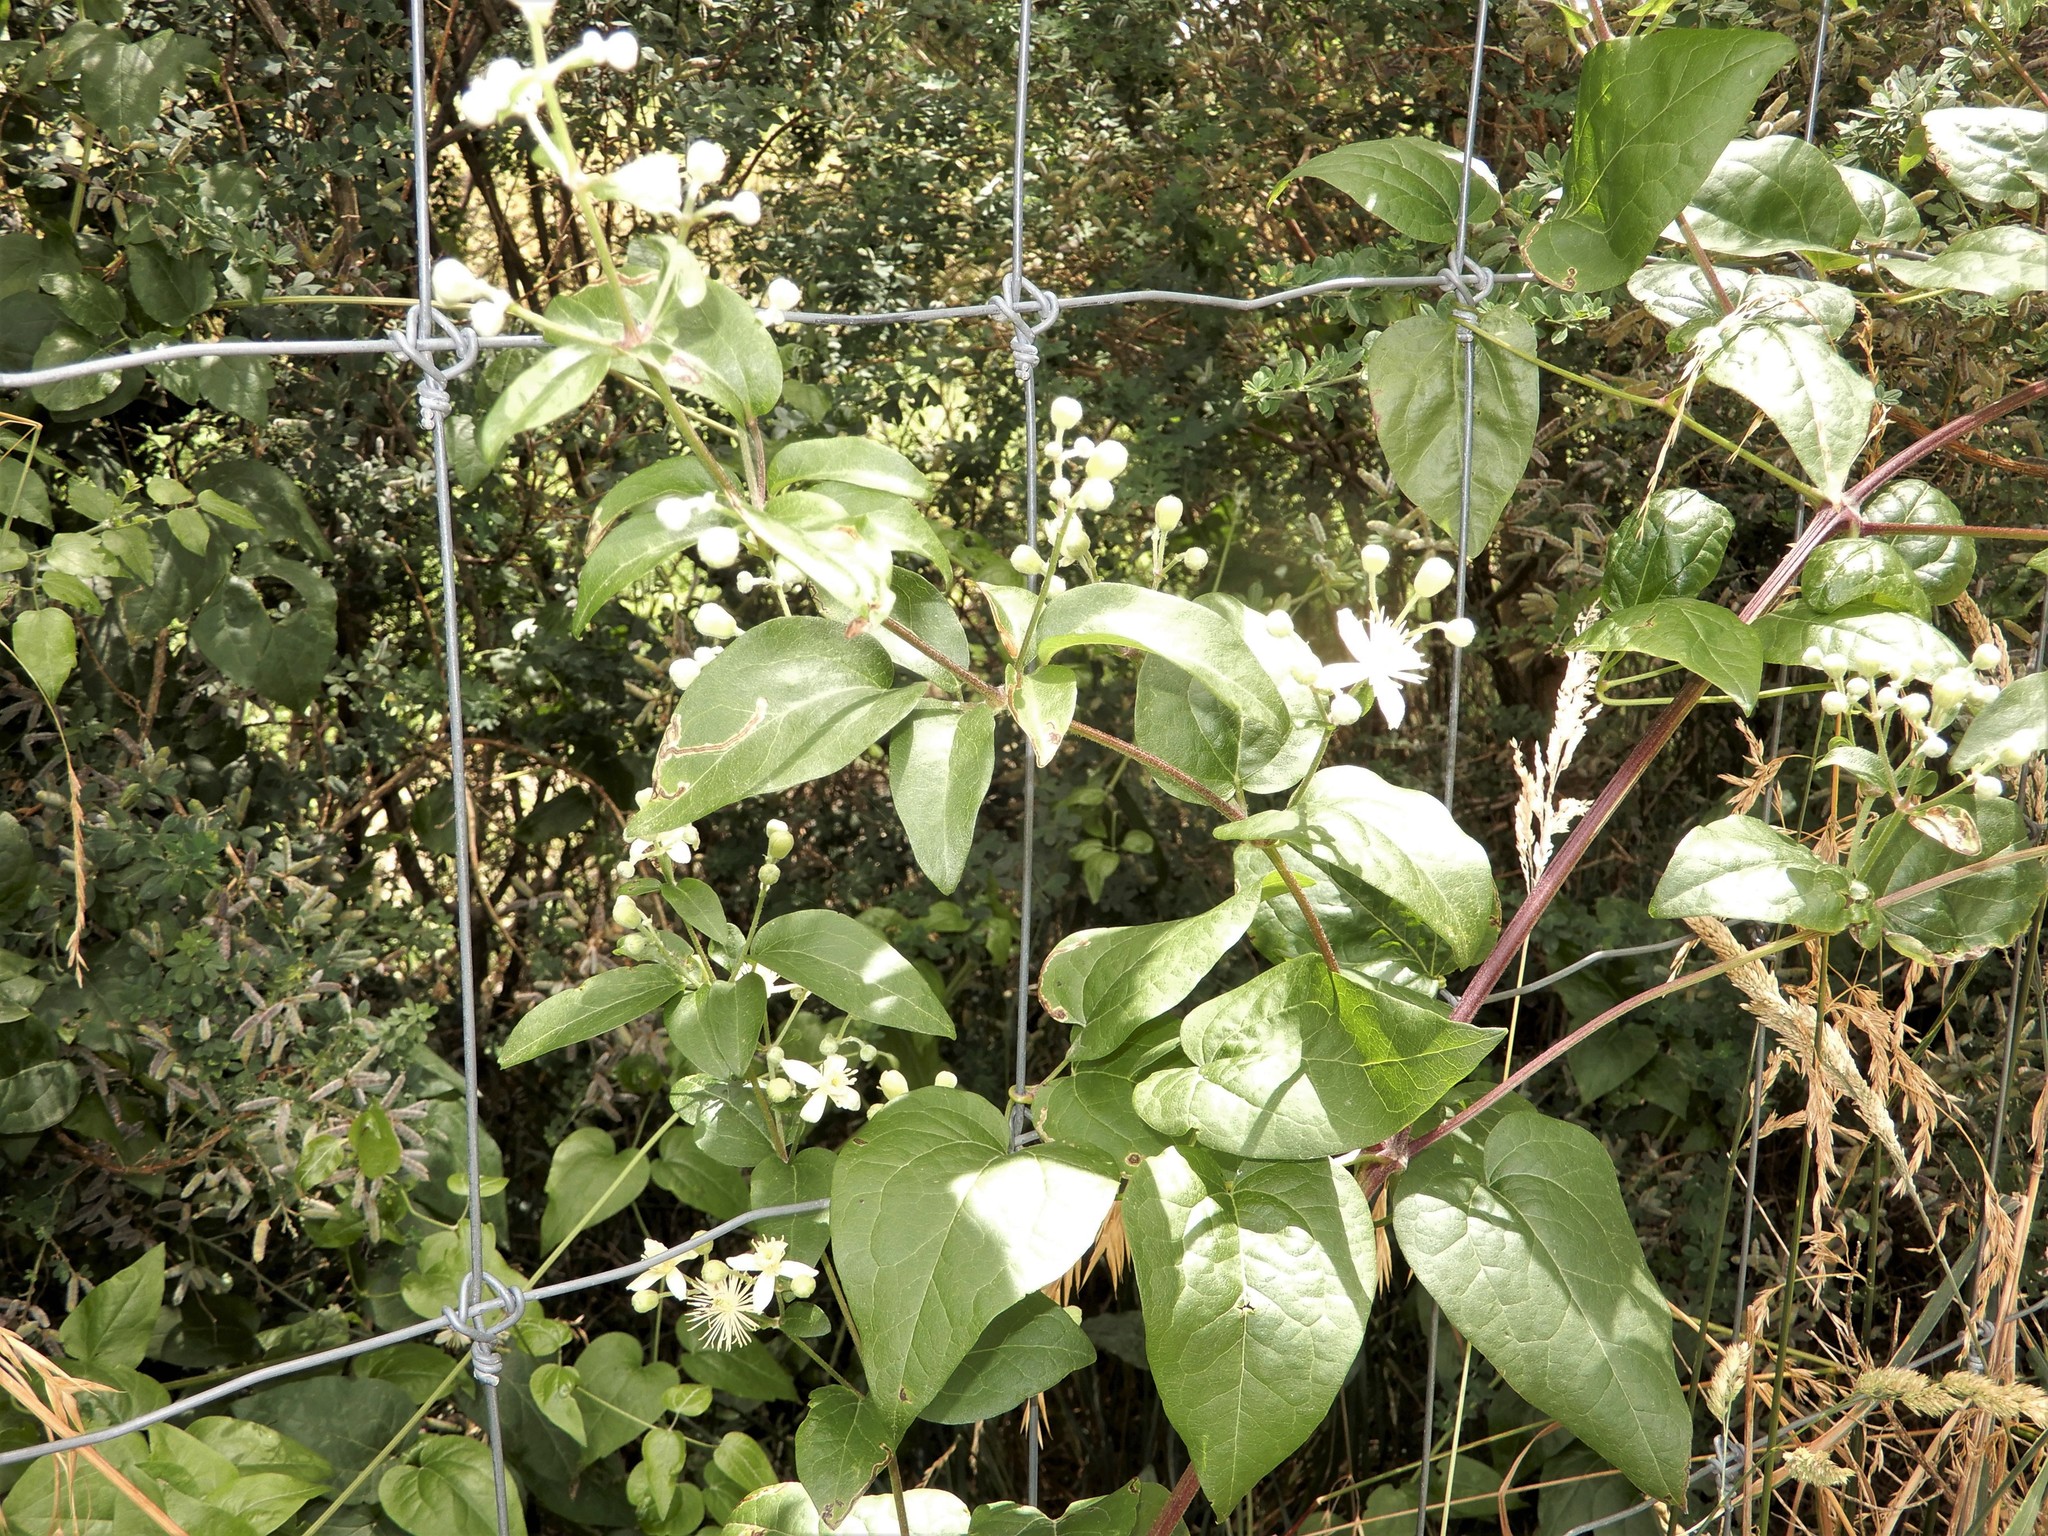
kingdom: Plantae
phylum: Tracheophyta
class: Magnoliopsida
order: Ranunculales
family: Ranunculaceae
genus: Clematis
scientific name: Clematis vitalba
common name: Evergreen clematis
